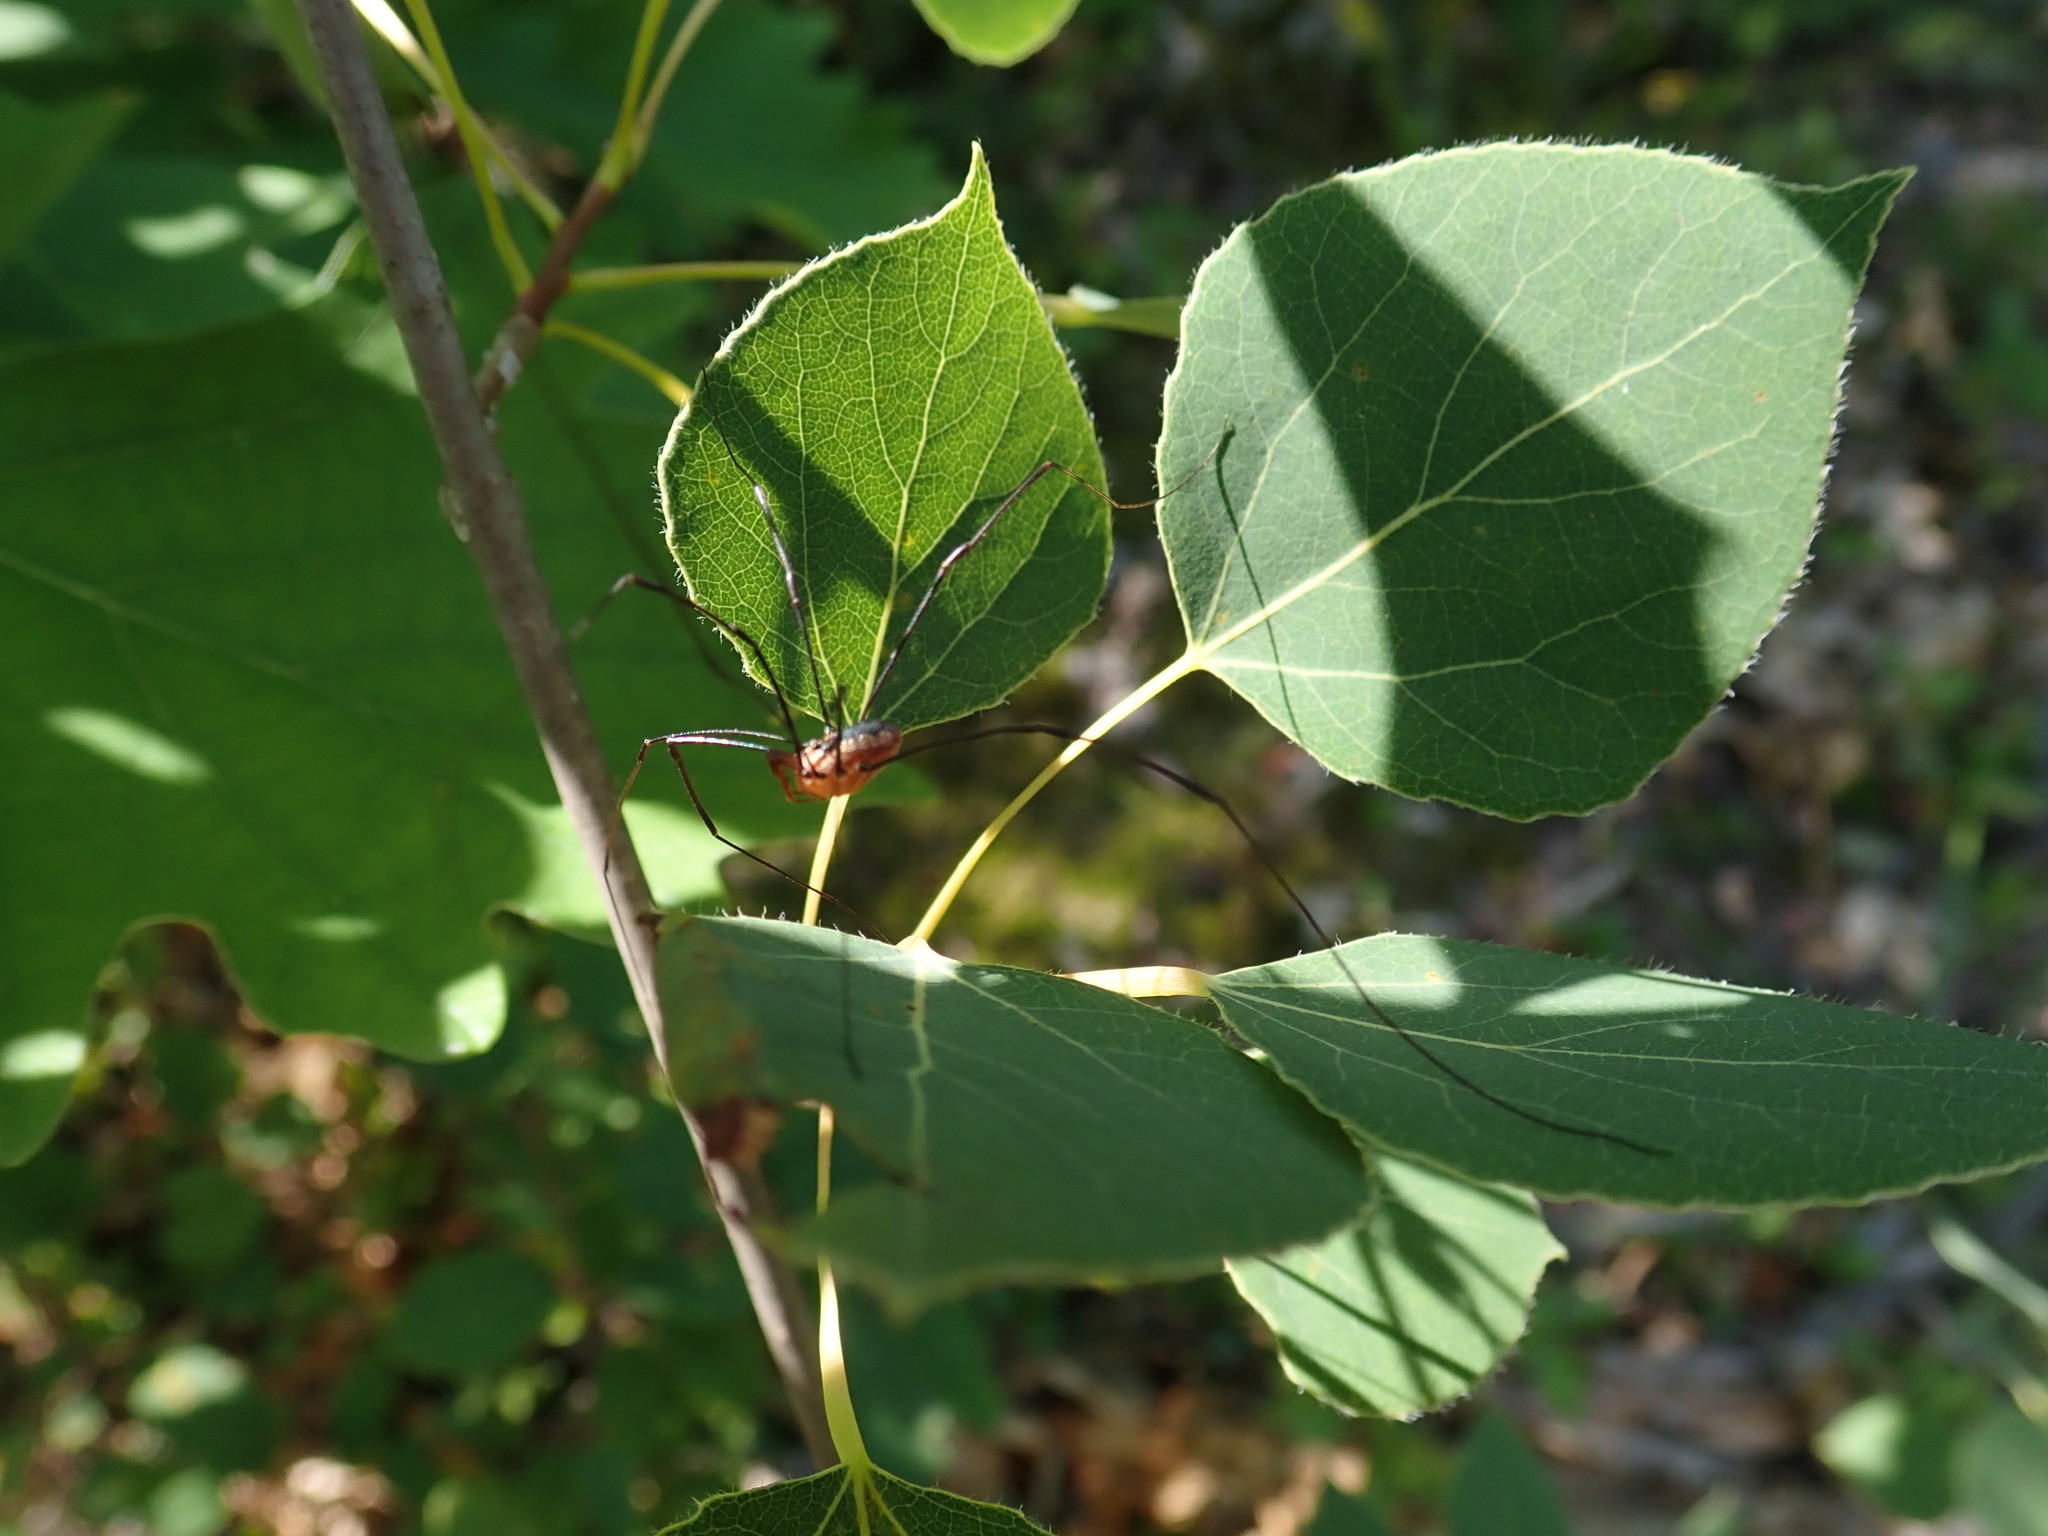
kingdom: Animalia
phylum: Arthropoda
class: Arachnida
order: Opiliones
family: Sclerosomatidae
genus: Leiobunum
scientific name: Leiobunum vittatum
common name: Eastern harvestman
